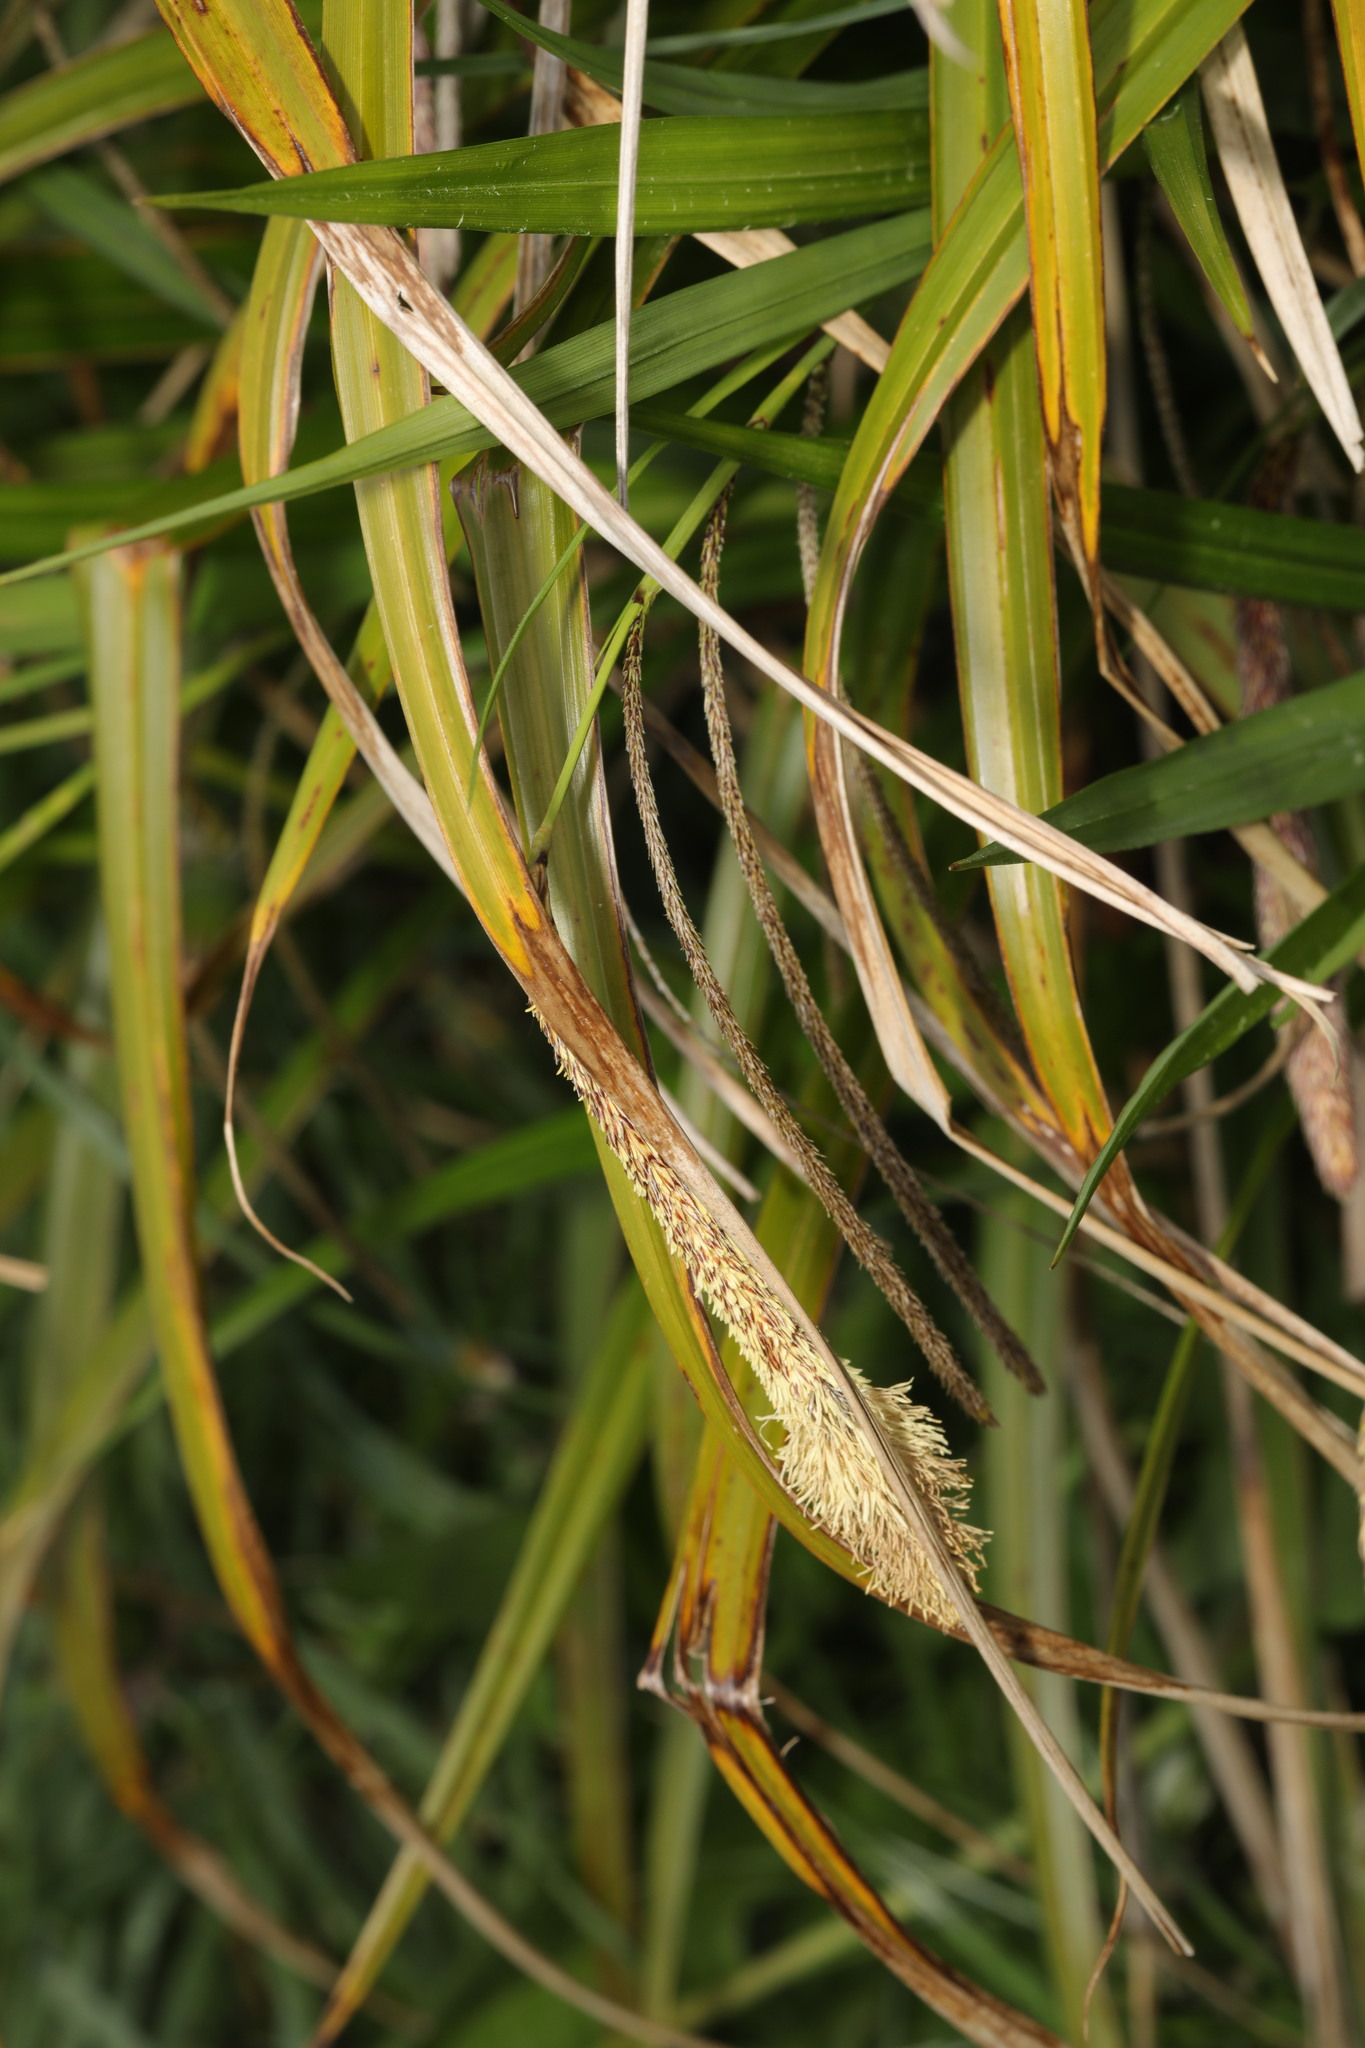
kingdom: Plantae
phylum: Tracheophyta
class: Liliopsida
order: Poales
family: Cyperaceae
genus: Carex
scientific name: Carex pendula
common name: Pendulous sedge
